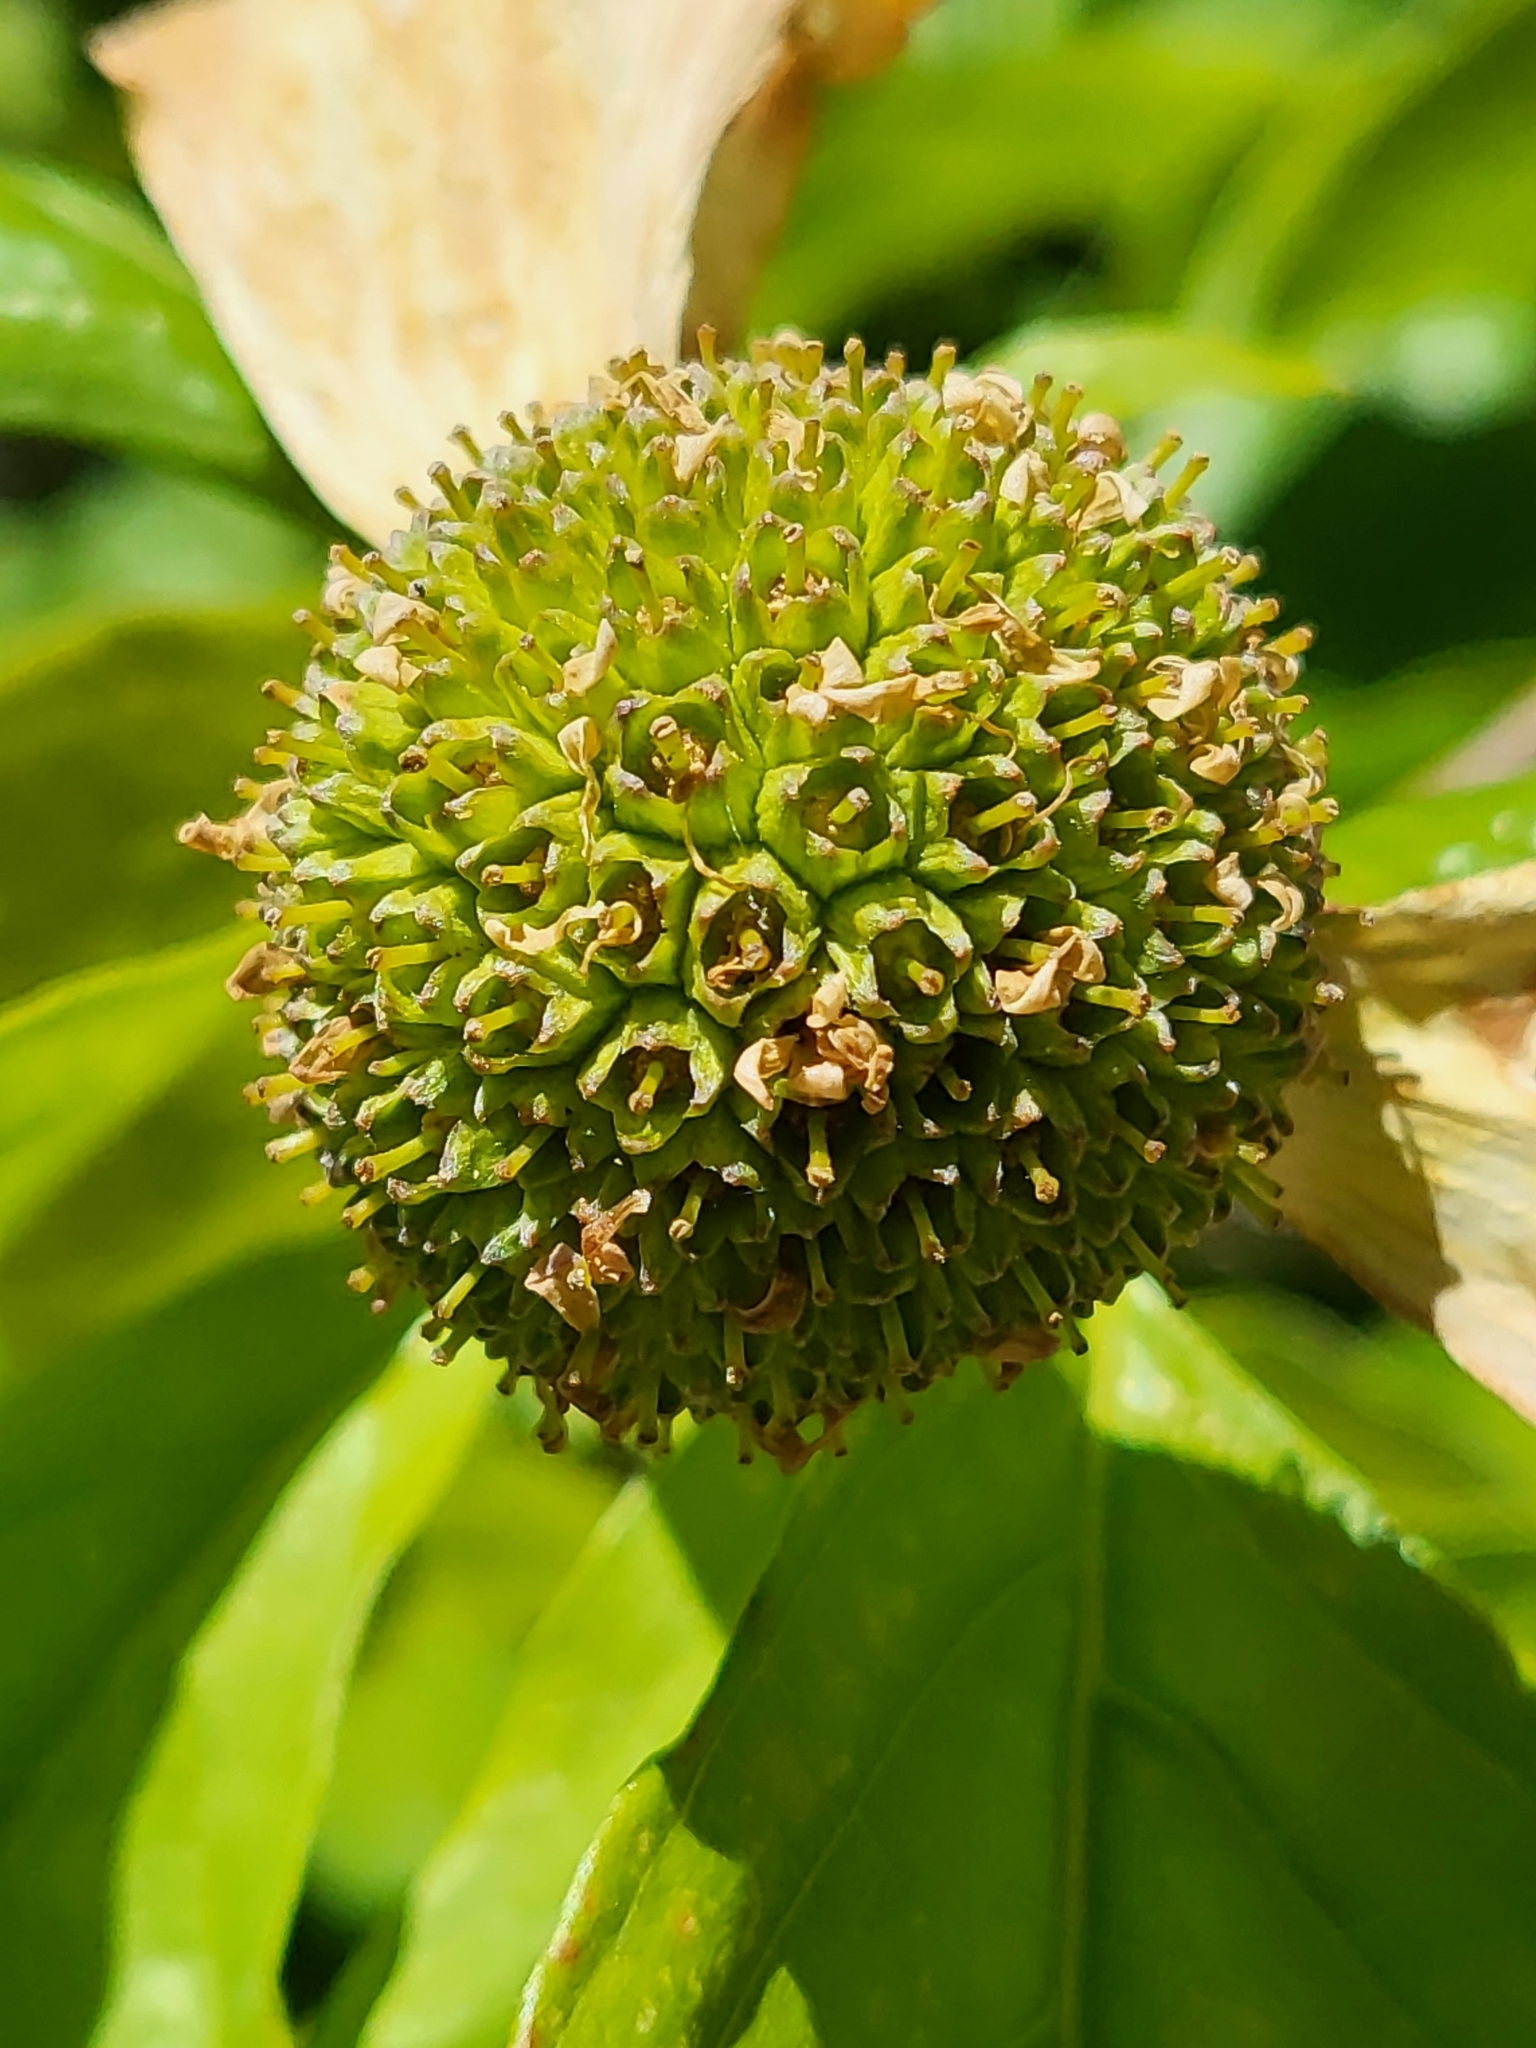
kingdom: Plantae
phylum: Tracheophyta
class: Magnoliopsida
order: Cornales
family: Cornaceae
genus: Cornus
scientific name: Cornus nuttallii
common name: Pacific dogwood
